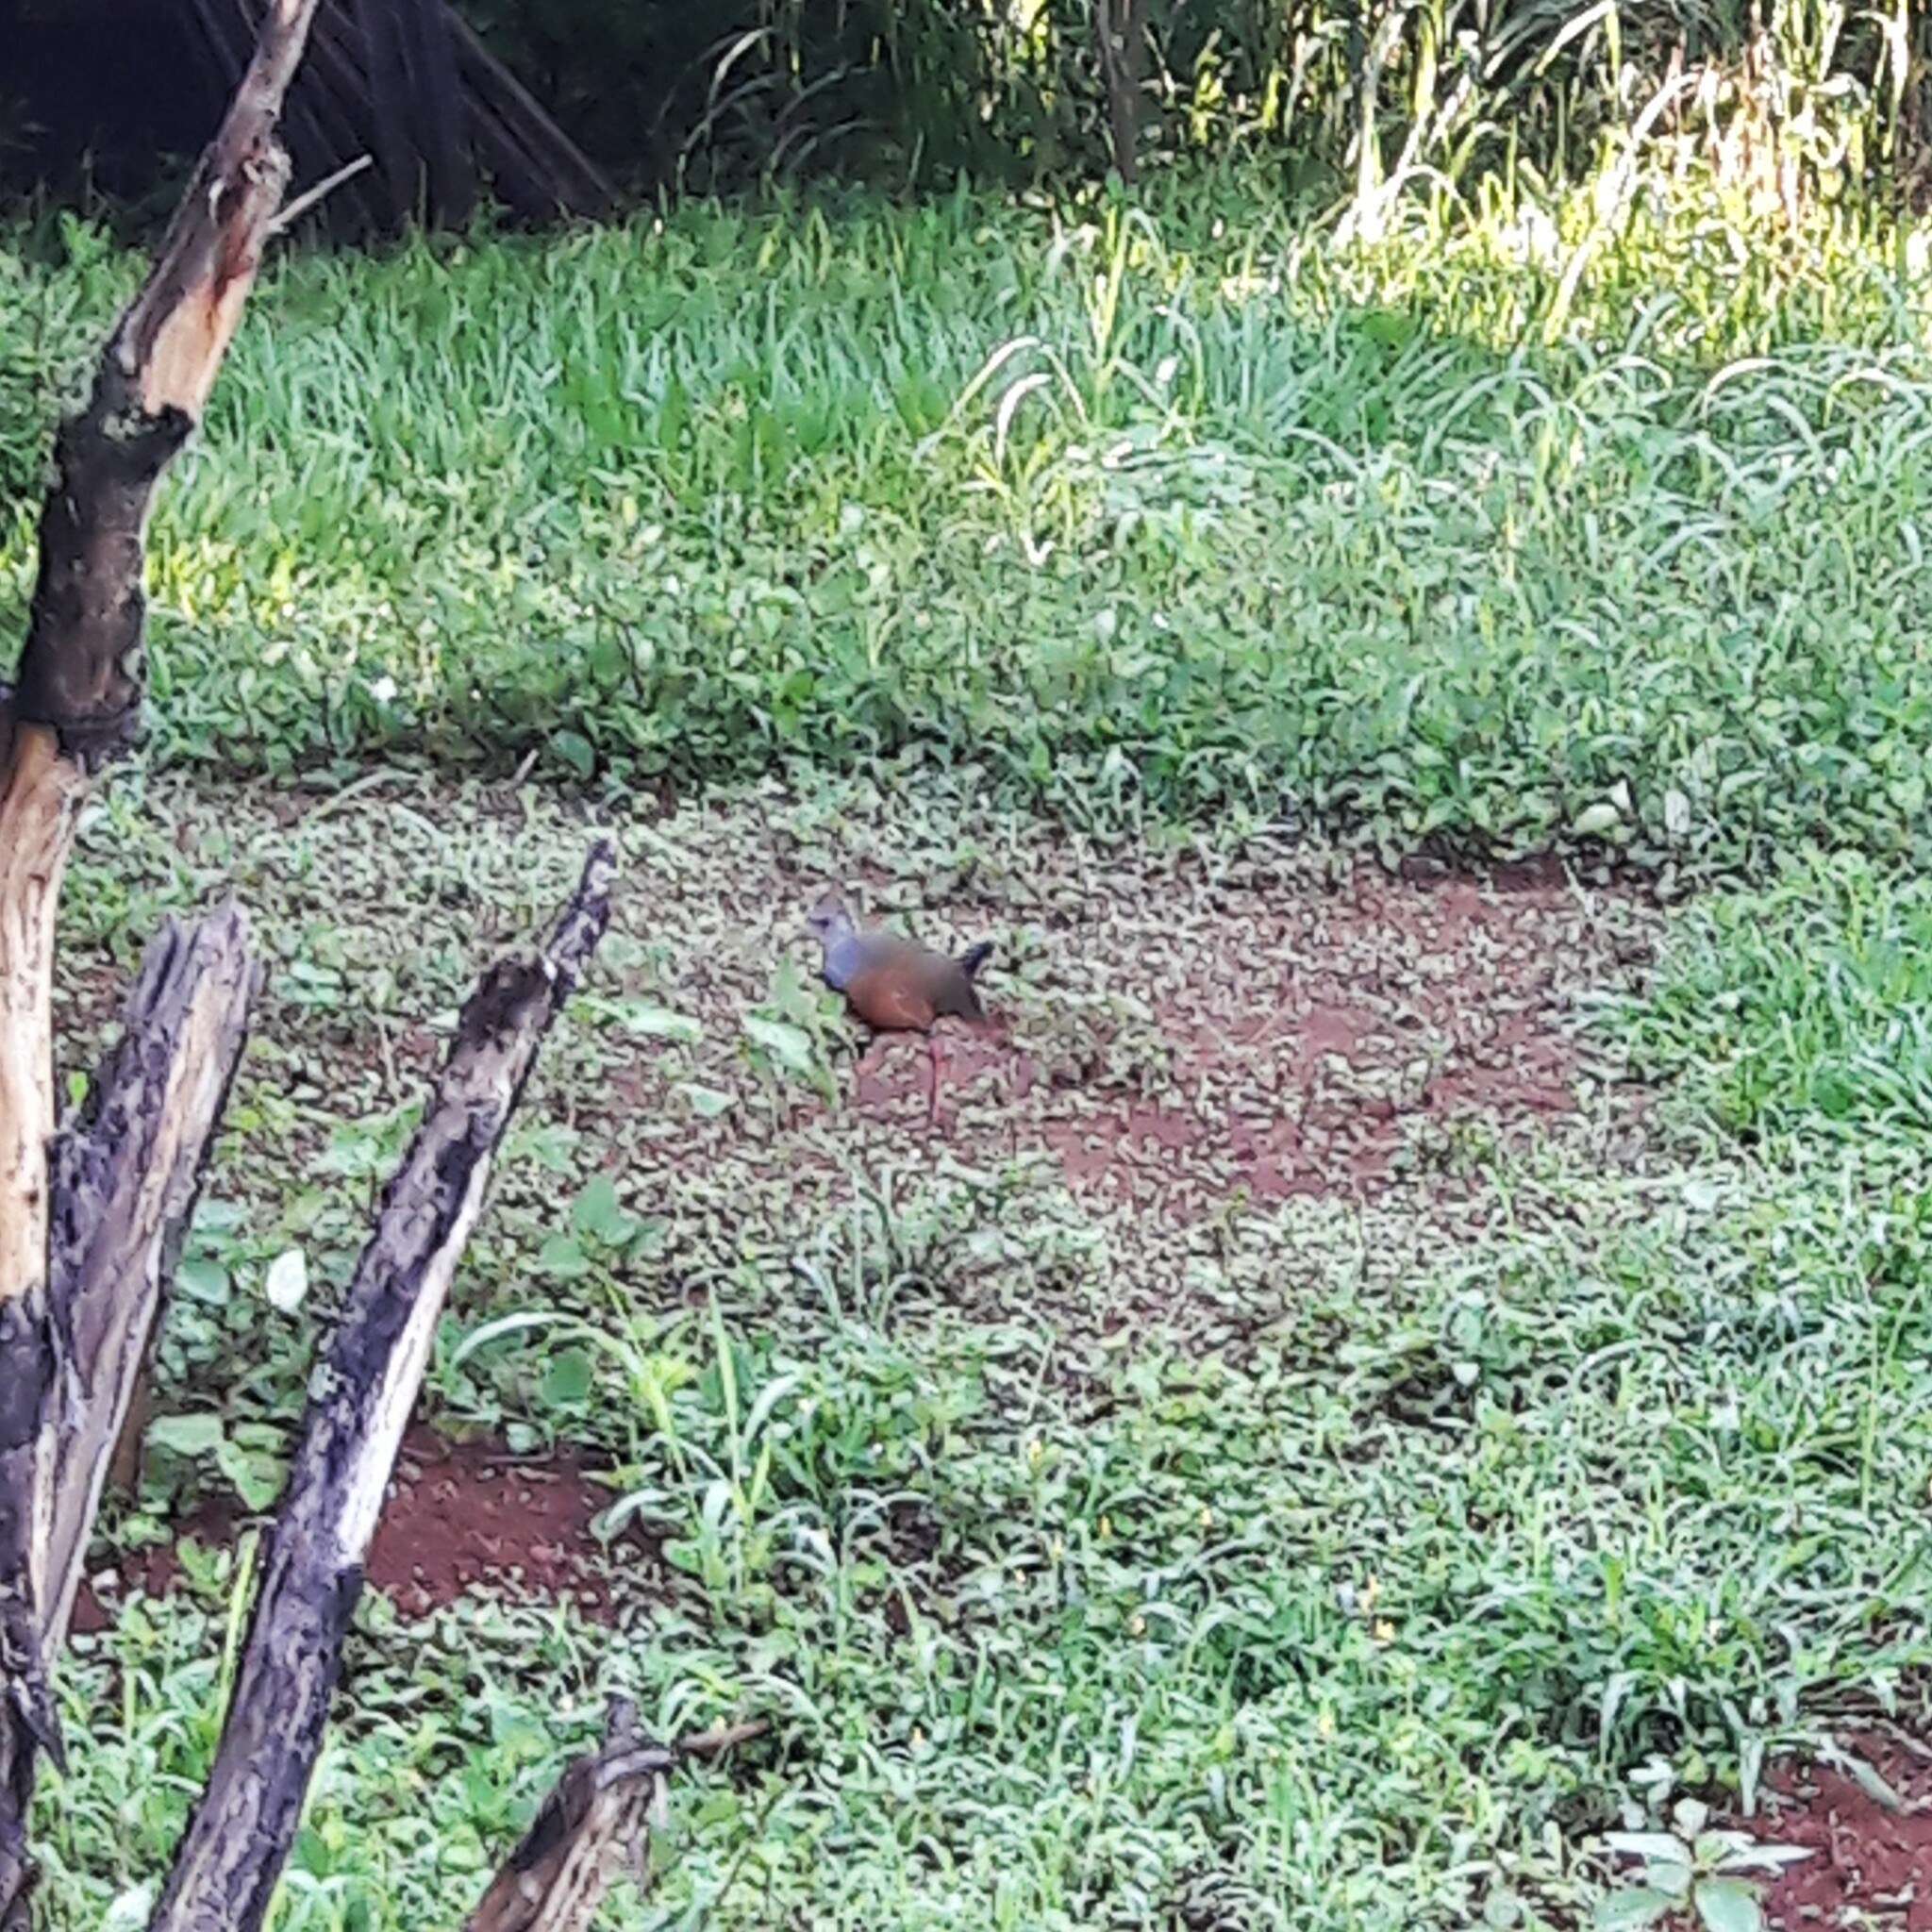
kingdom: Animalia
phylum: Chordata
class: Aves
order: Gruiformes
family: Rallidae
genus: Aramides
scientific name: Aramides cajanea
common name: Gray-necked wood-rail
